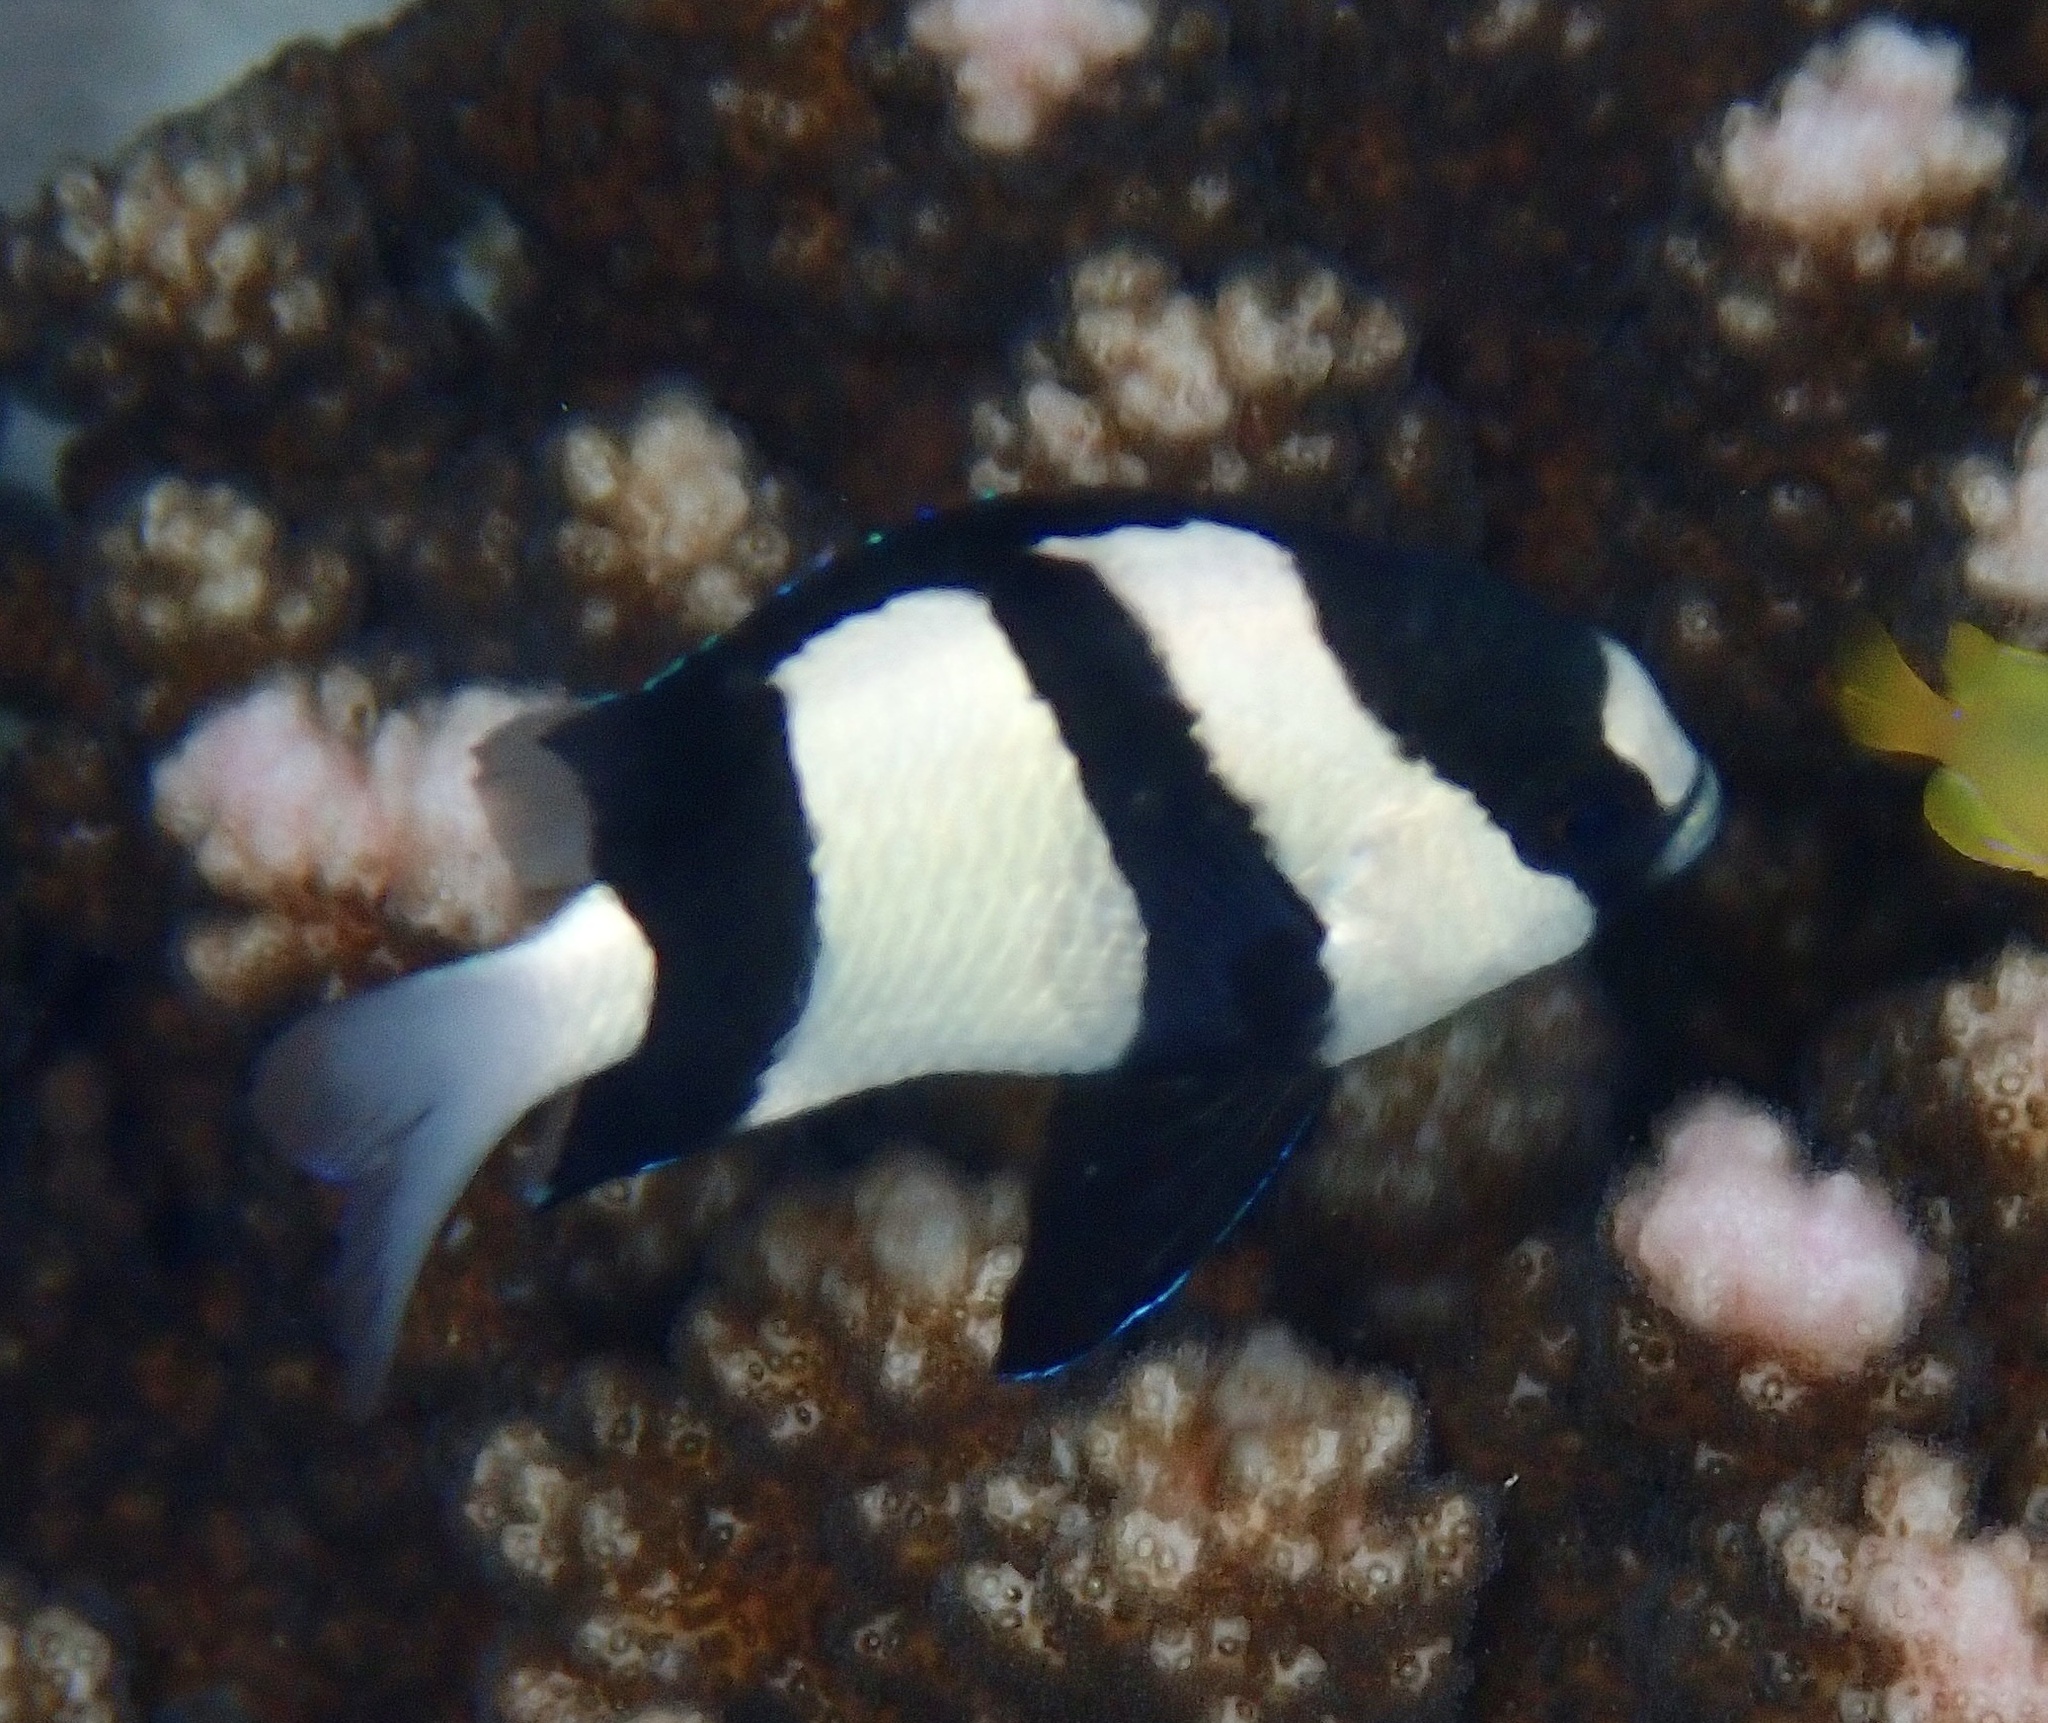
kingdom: Animalia
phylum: Chordata
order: Perciformes
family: Pomacentridae
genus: Dascyllus
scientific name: Dascyllus aruanus
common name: Humbug dascyllus
